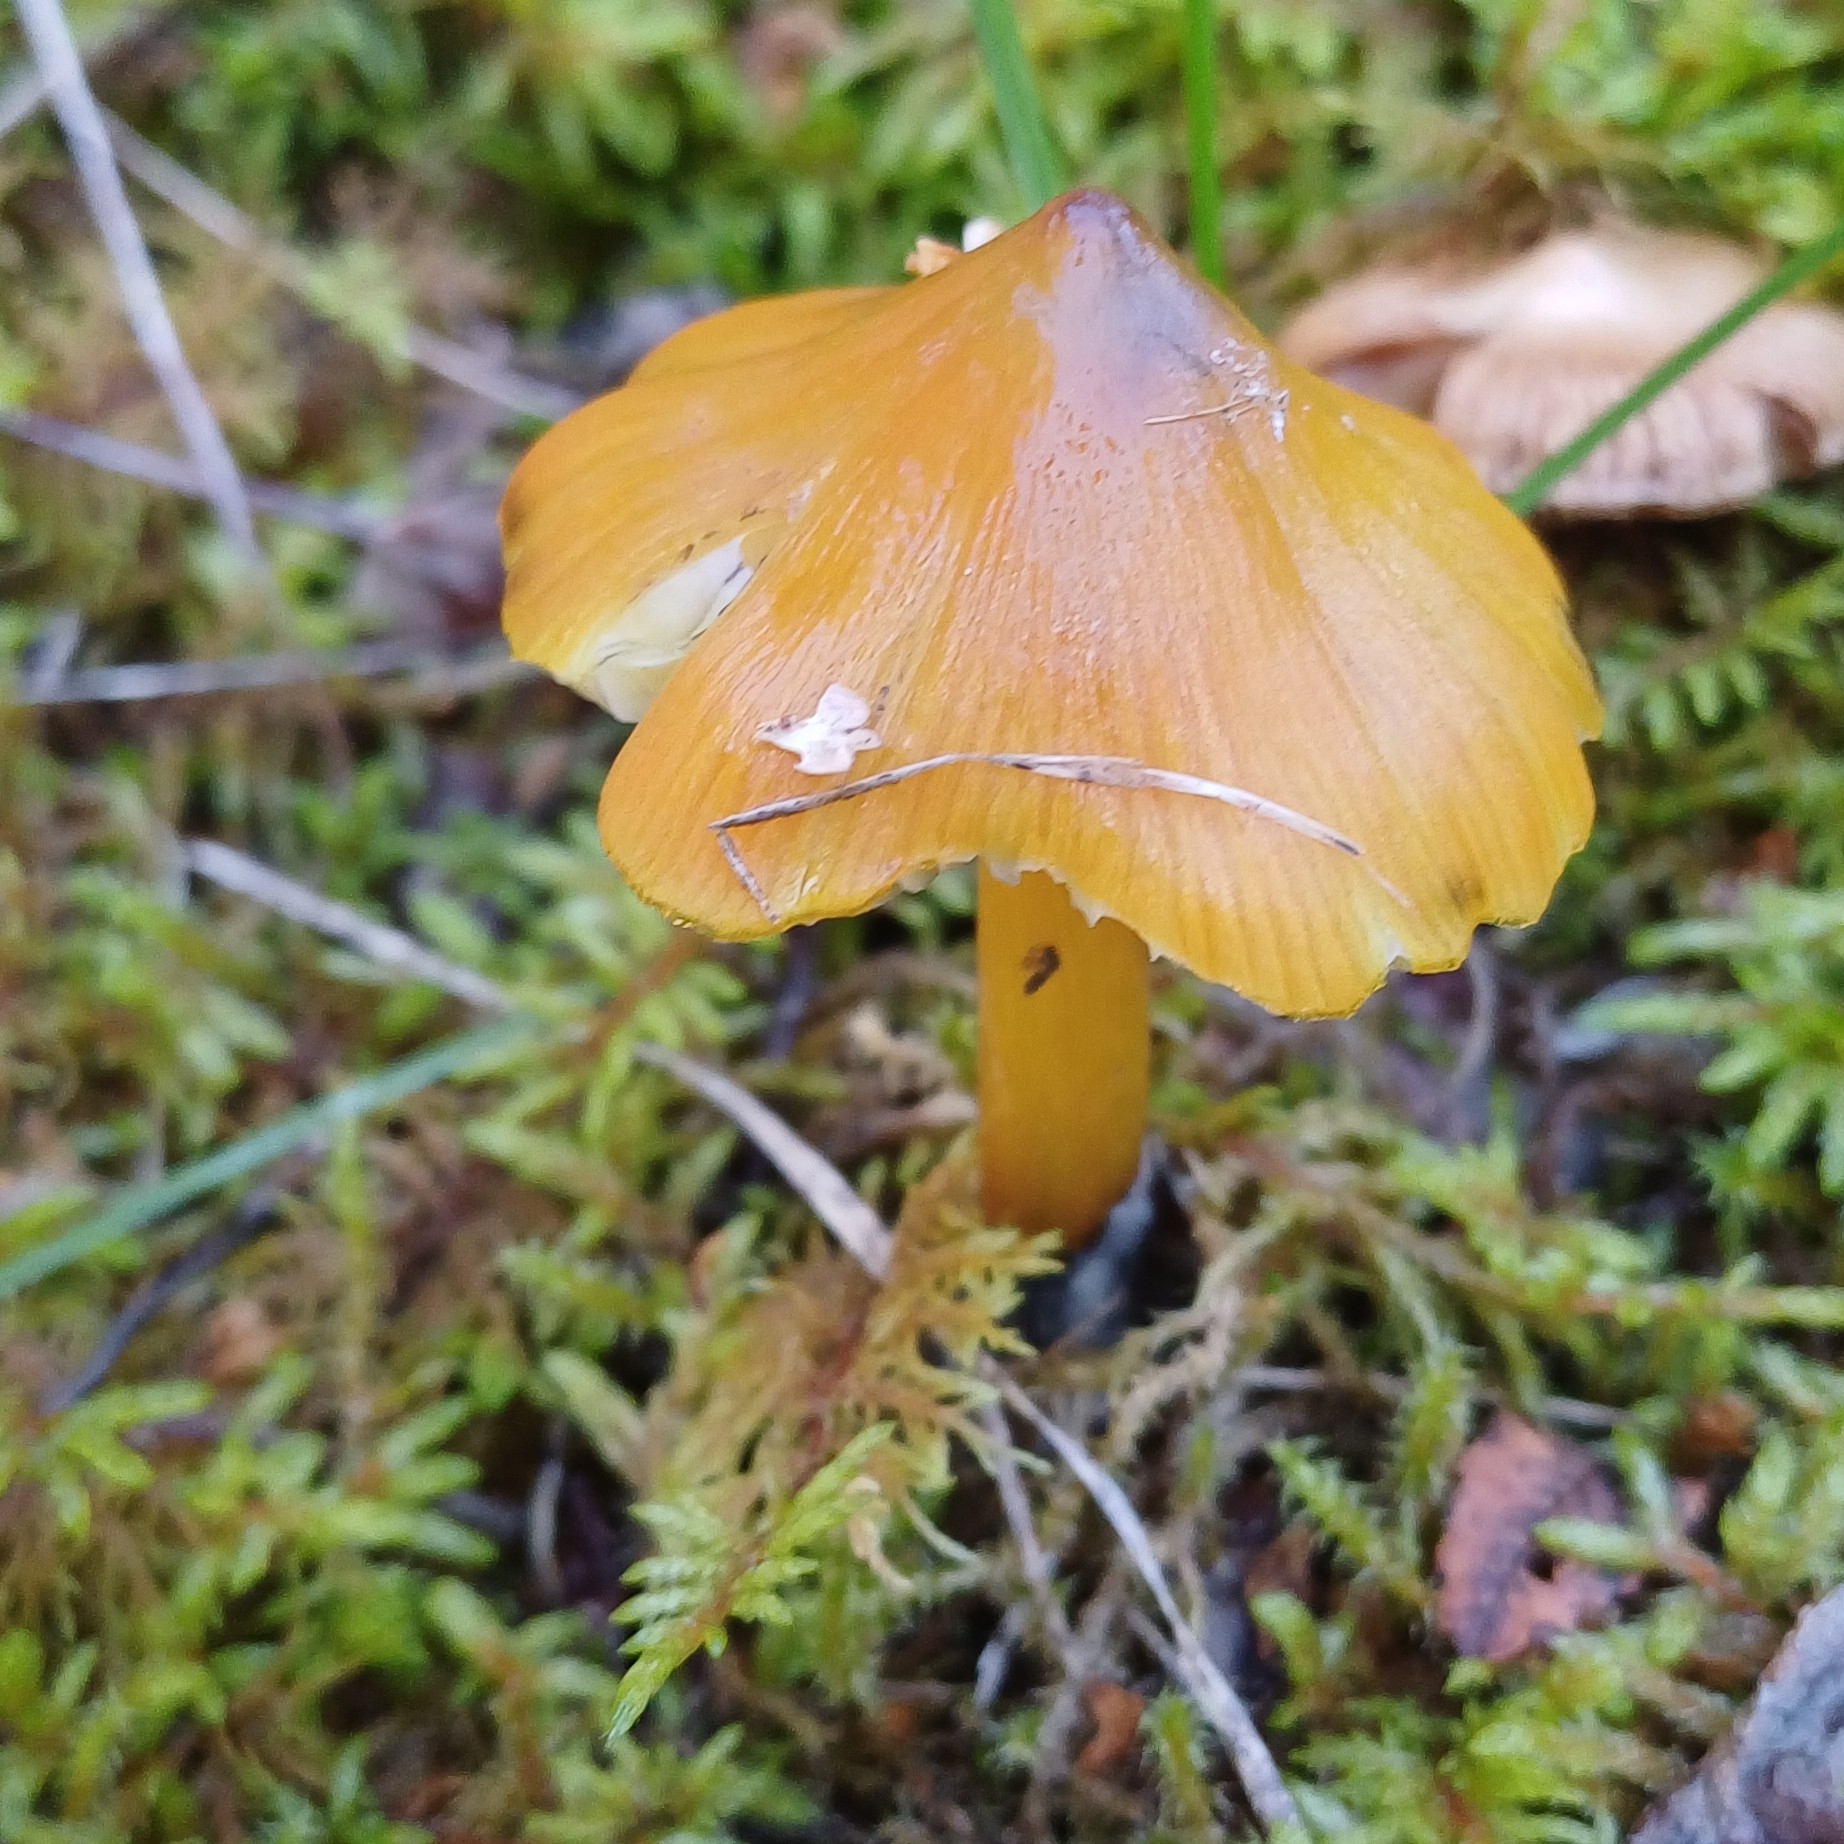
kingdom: Fungi
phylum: Basidiomycota
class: Agaricomycetes
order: Agaricales
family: Hygrophoraceae
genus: Hygrocybe
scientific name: Hygrocybe conica
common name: Blackening wax-cap
